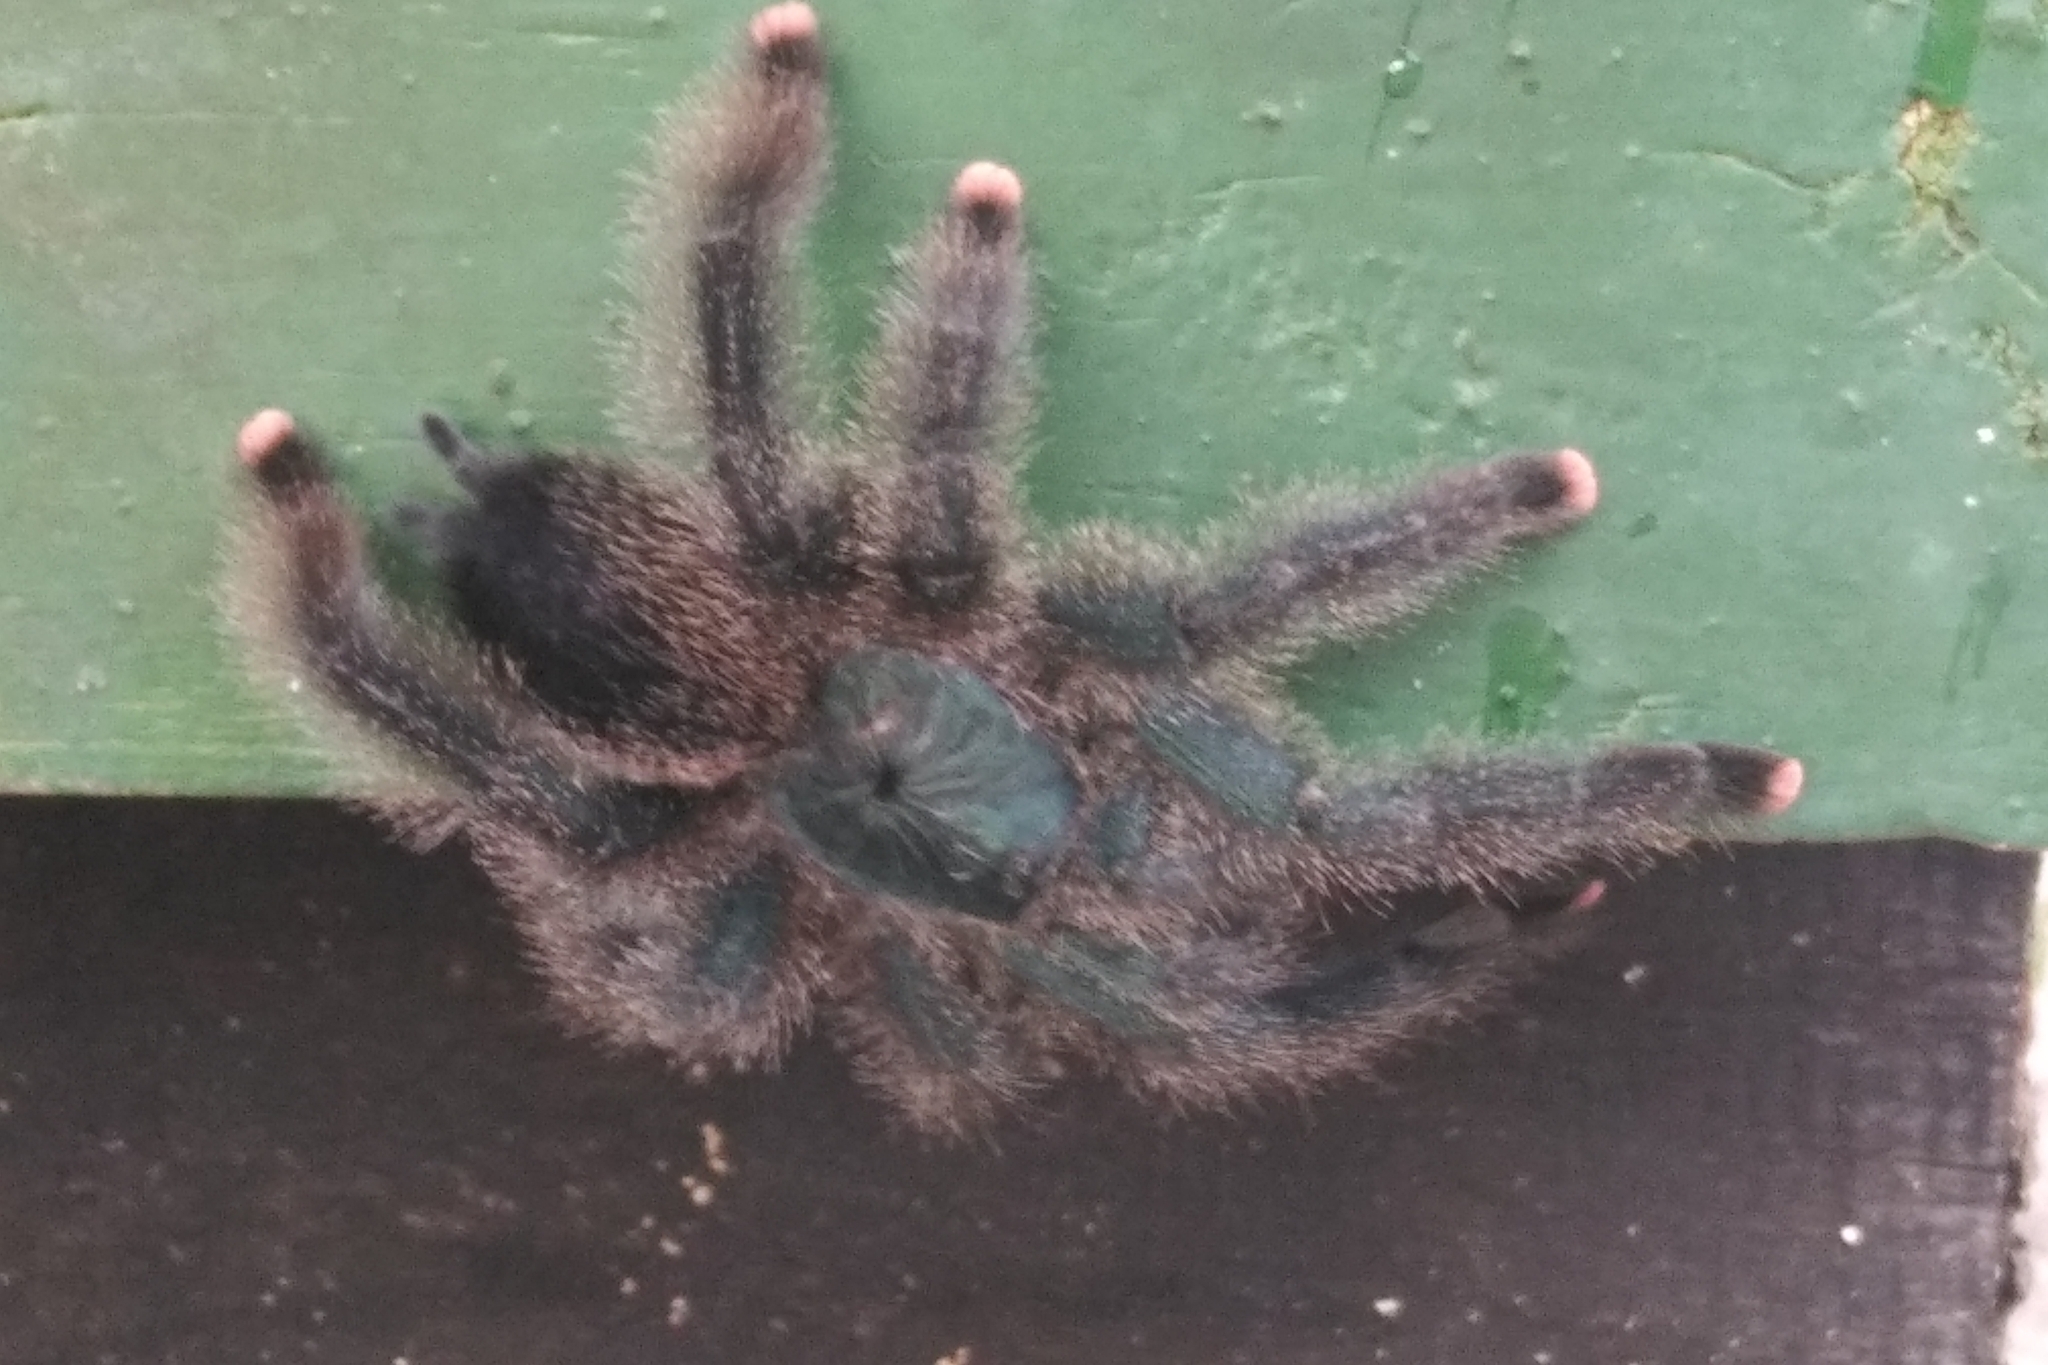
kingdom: Animalia
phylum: Arthropoda
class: Arachnida
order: Araneae
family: Theraphosidae
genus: Avicularia
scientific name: Avicularia avicularia
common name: Tarantula spiders
